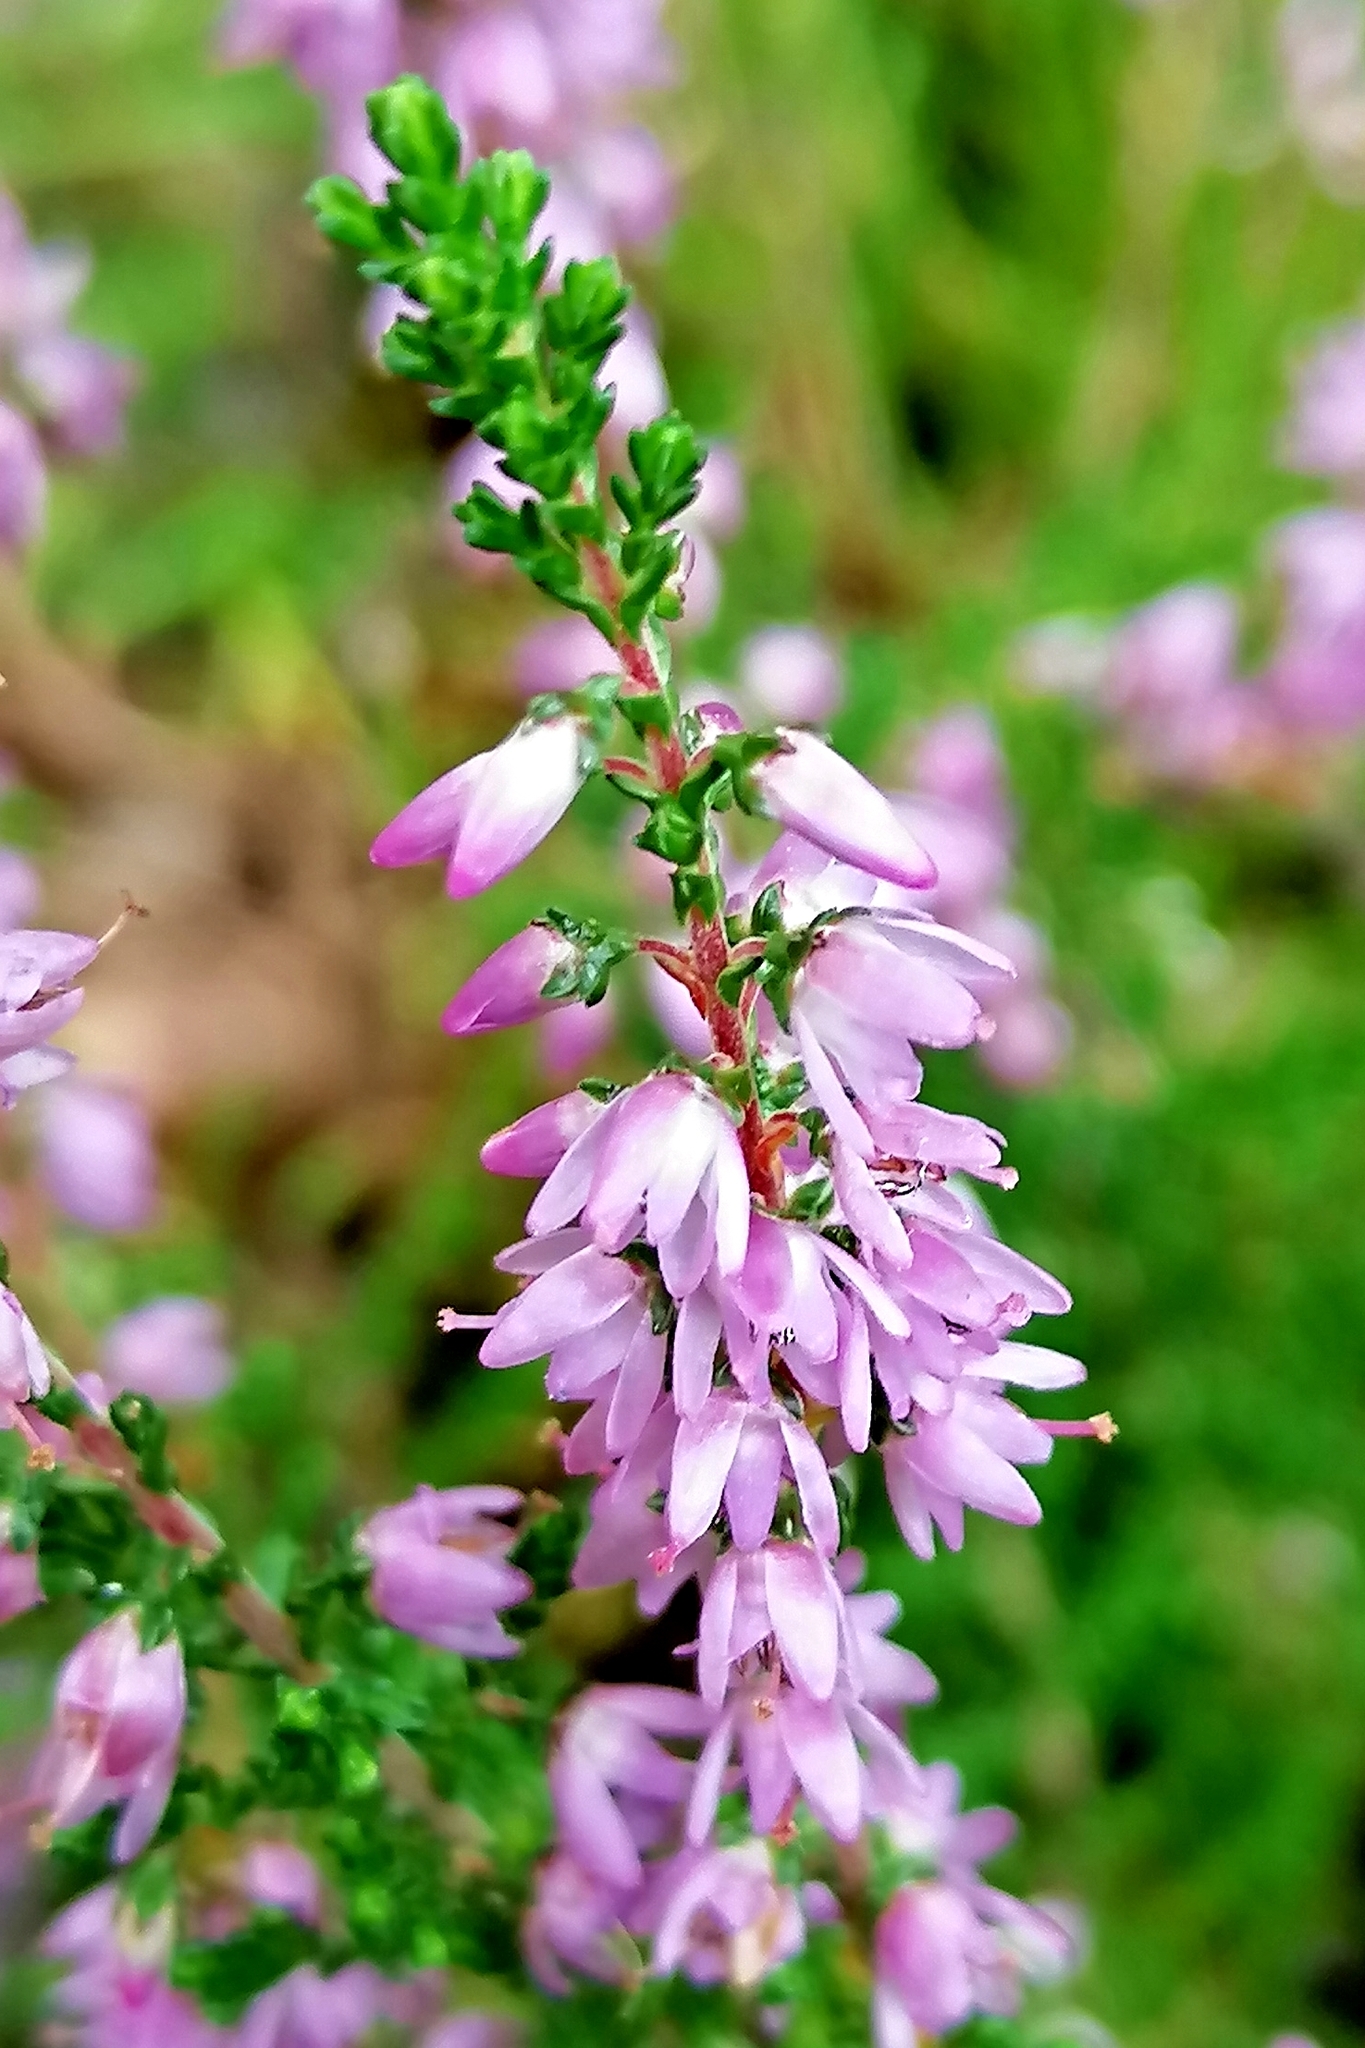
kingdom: Plantae
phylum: Tracheophyta
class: Magnoliopsida
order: Ericales
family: Ericaceae
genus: Calluna
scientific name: Calluna vulgaris
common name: Heather
